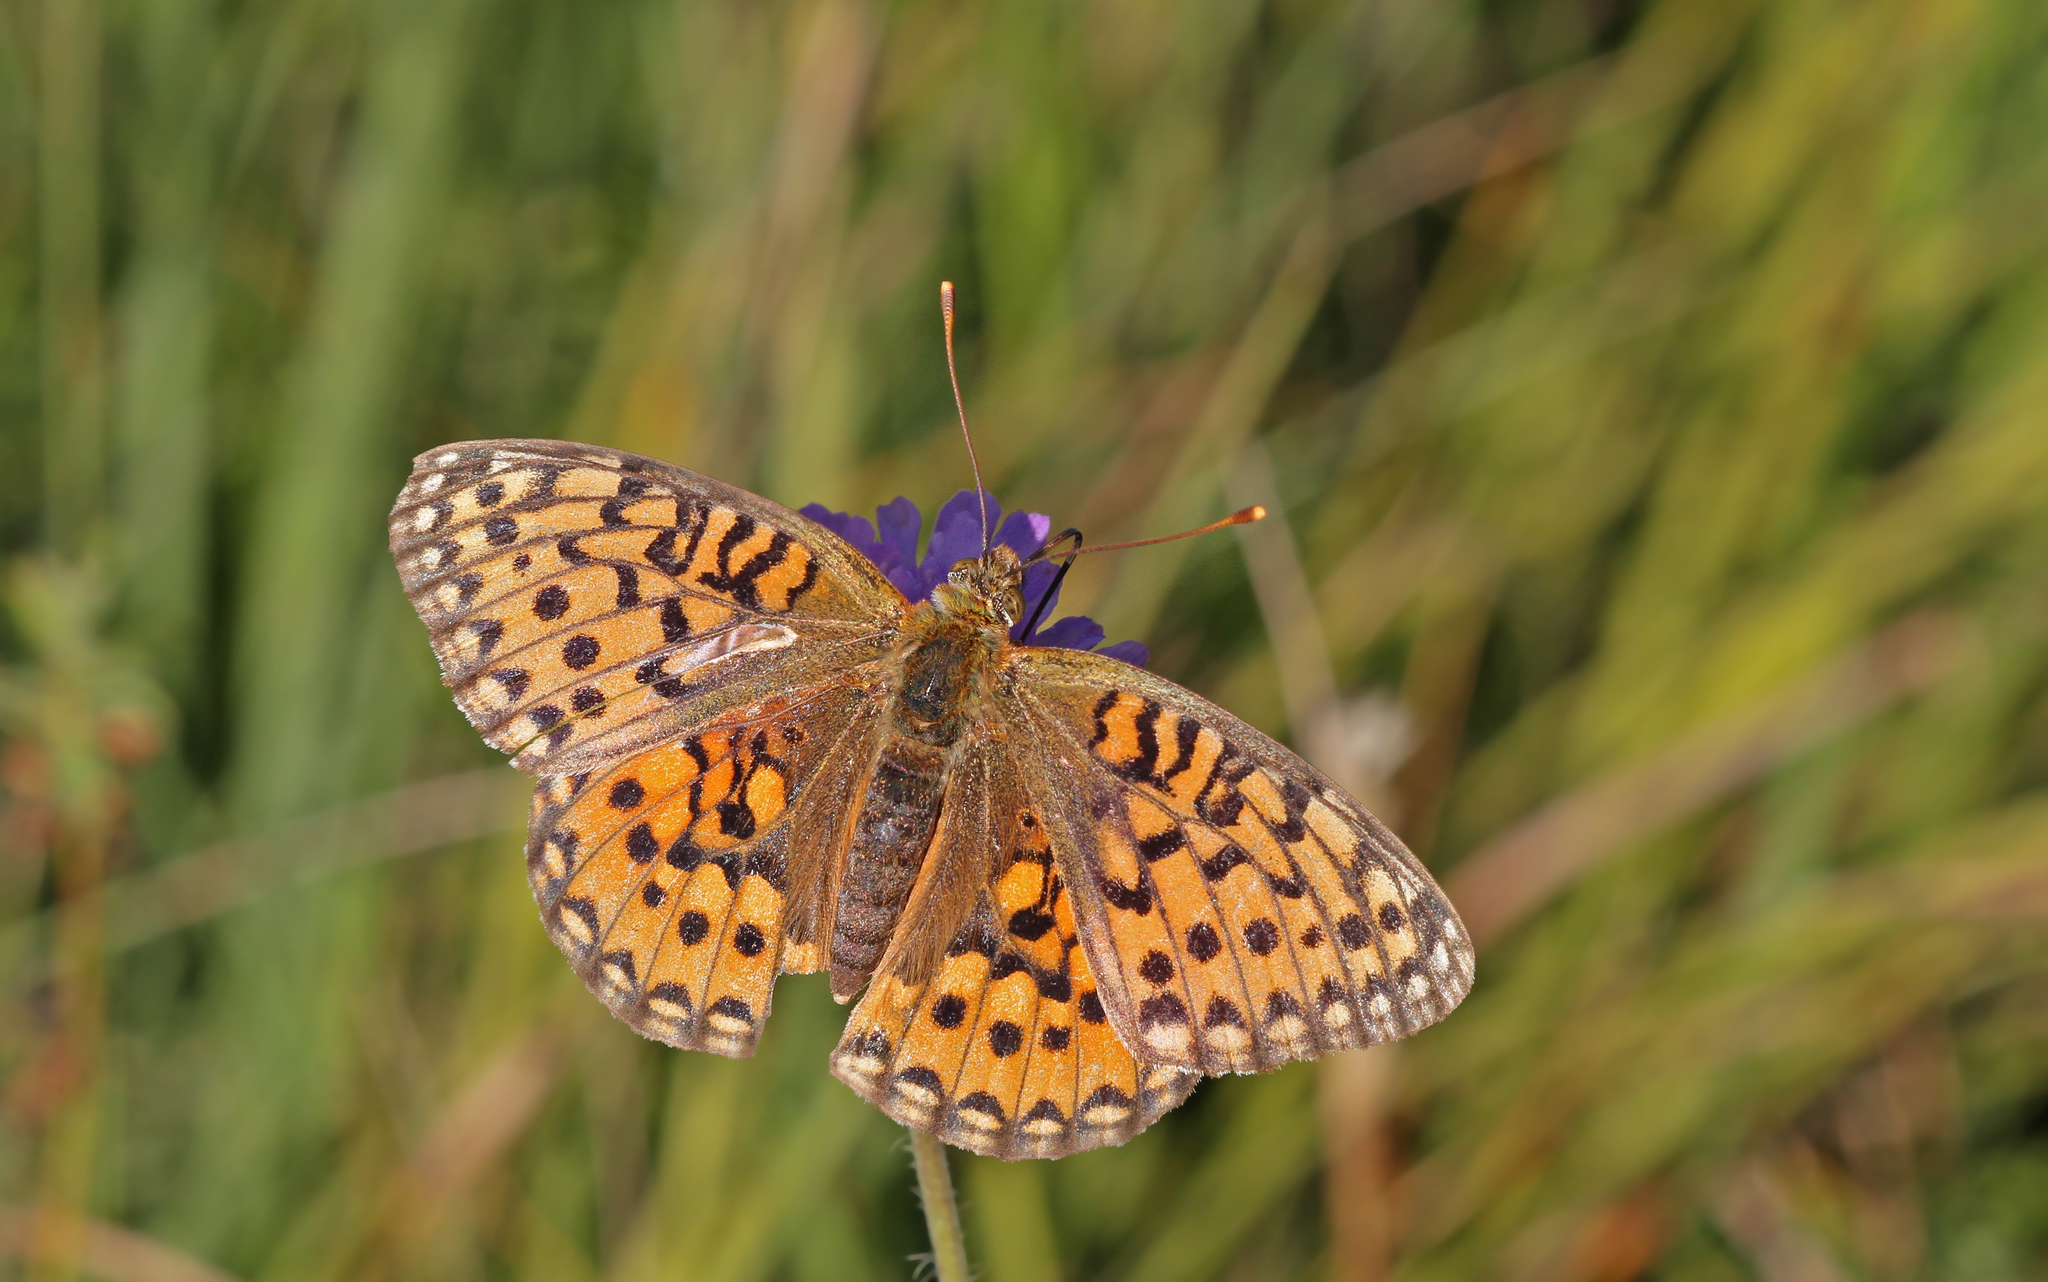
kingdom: Animalia
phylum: Arthropoda
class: Insecta
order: Lepidoptera
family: Nymphalidae
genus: Speyeria
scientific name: Speyeria aglaja
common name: Dark green fritillary
